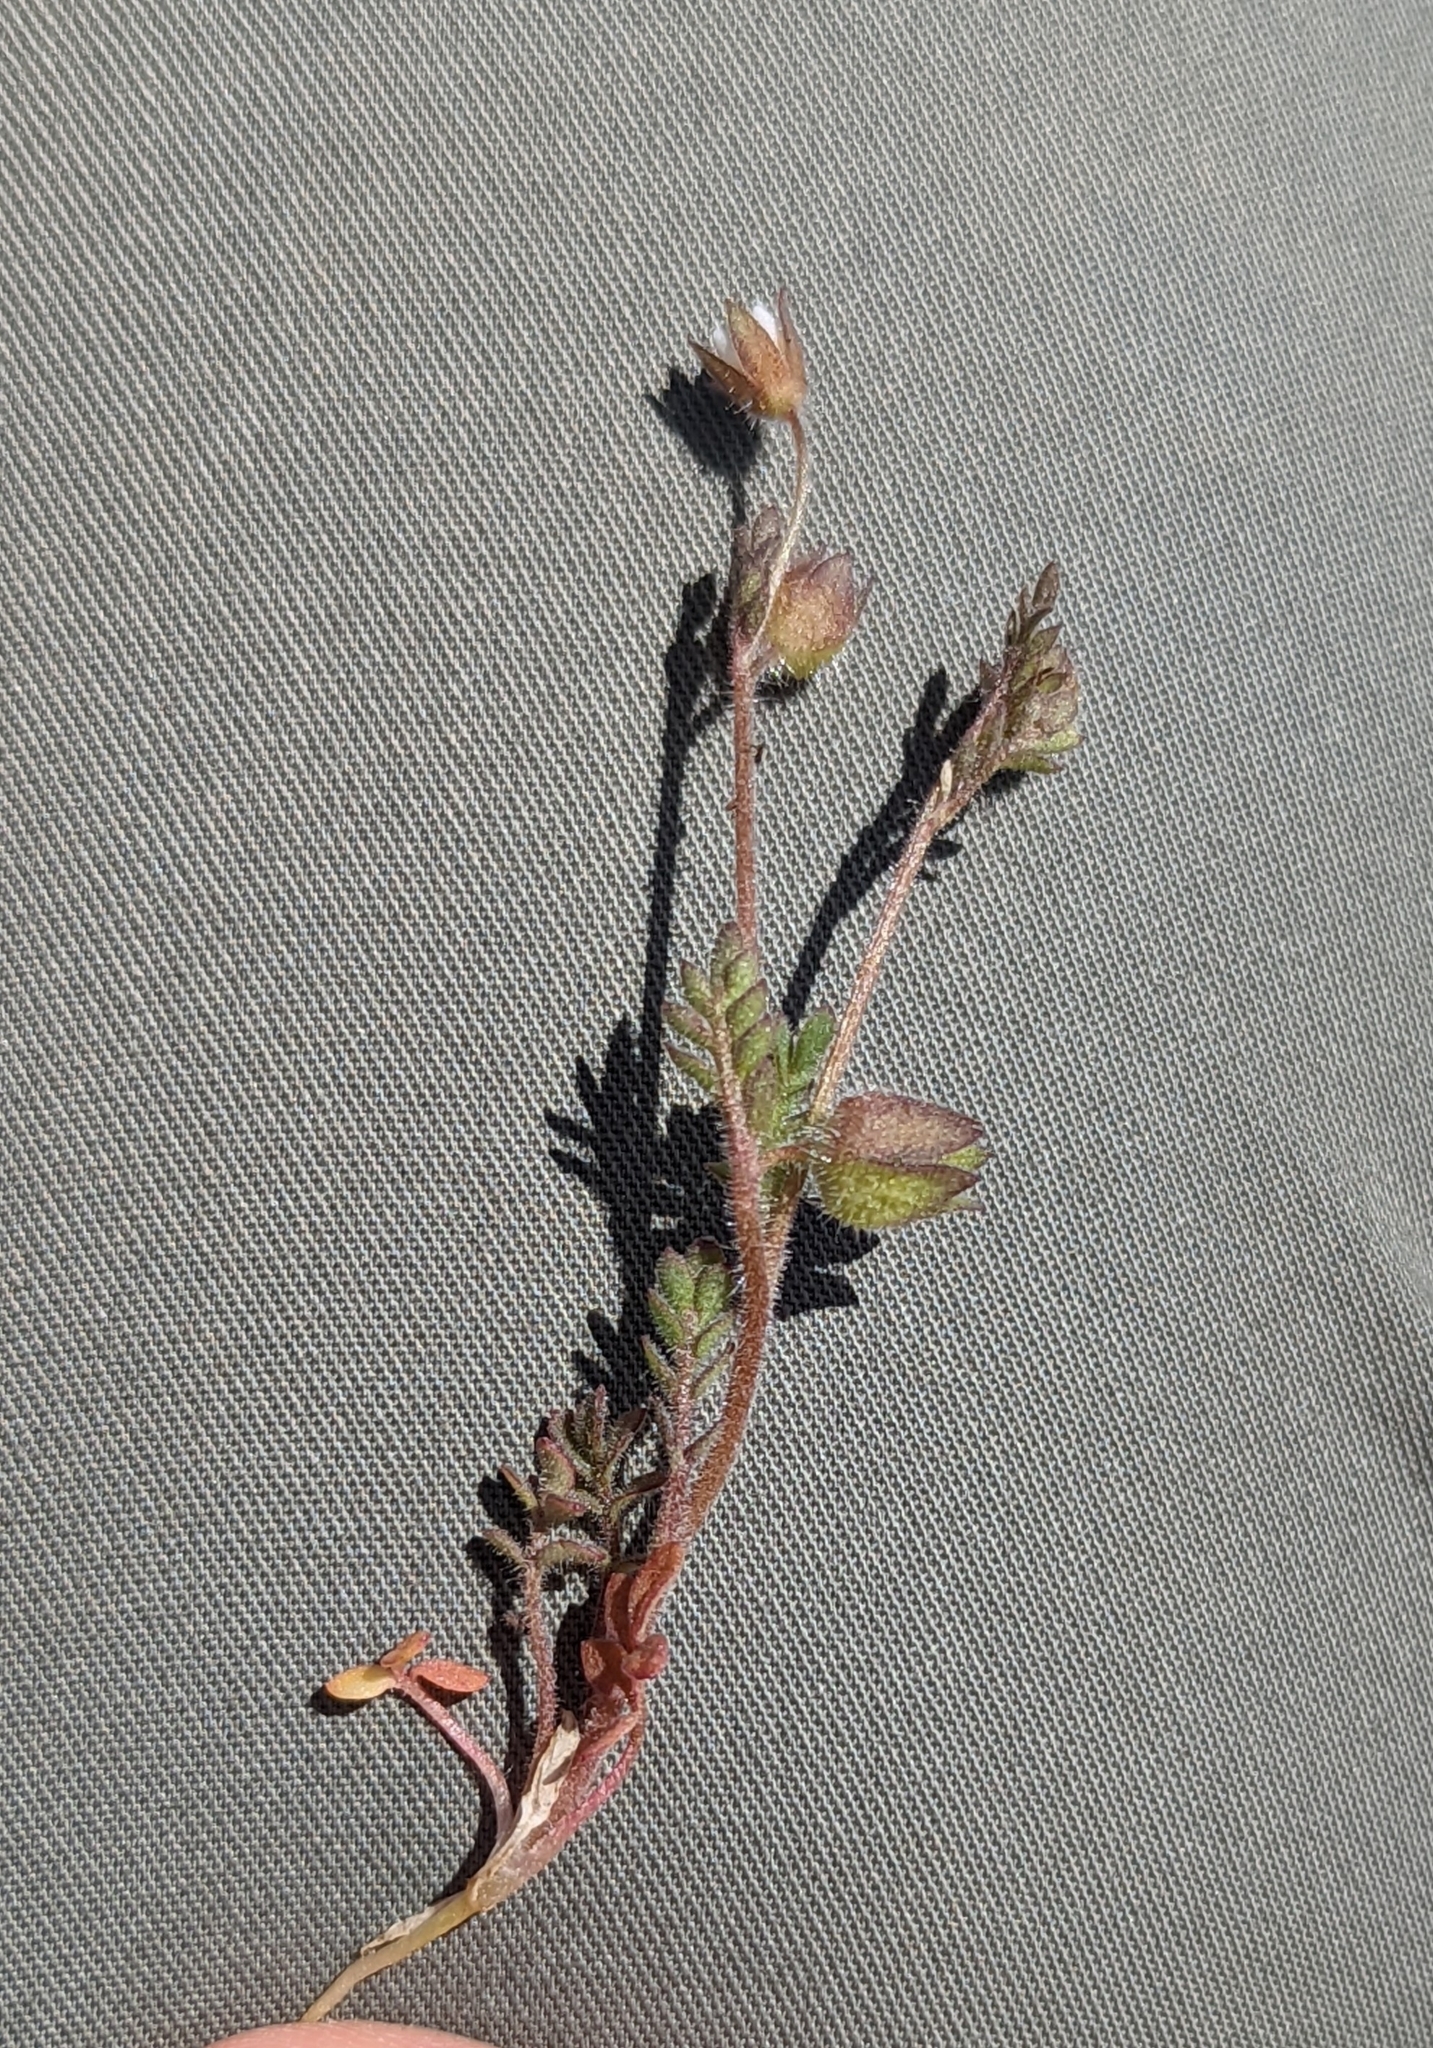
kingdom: Plantae
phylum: Tracheophyta
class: Magnoliopsida
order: Ericales
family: Polemoniaceae
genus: Polemonium
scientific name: Polemonium micranthum
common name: Annual jacob's-ladder
